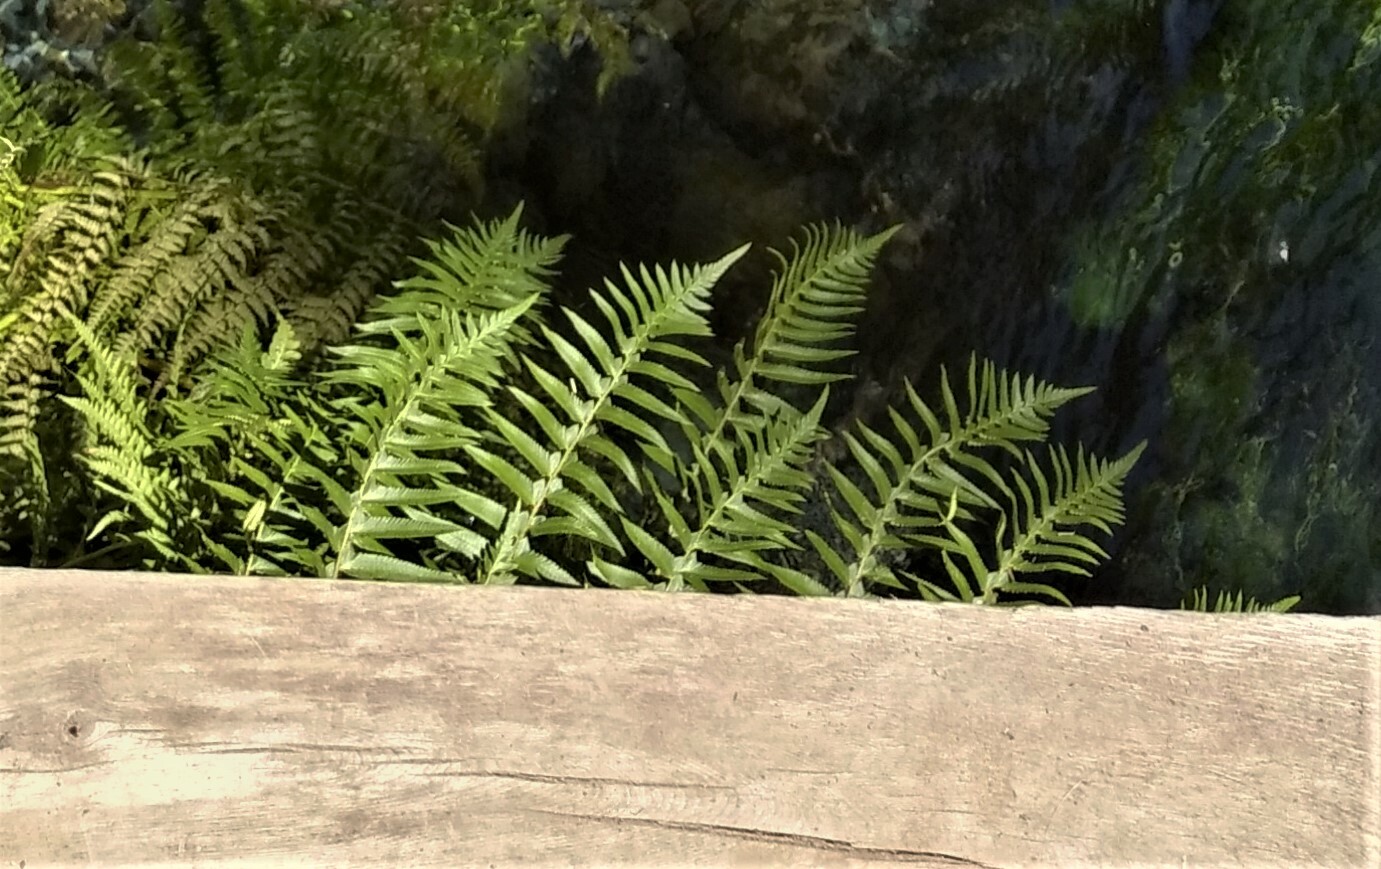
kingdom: Plantae
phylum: Tracheophyta
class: Polypodiopsida
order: Polypodiales
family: Dryopteridaceae
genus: Polystichum
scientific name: Polystichum munitum
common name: Western sword-fern
